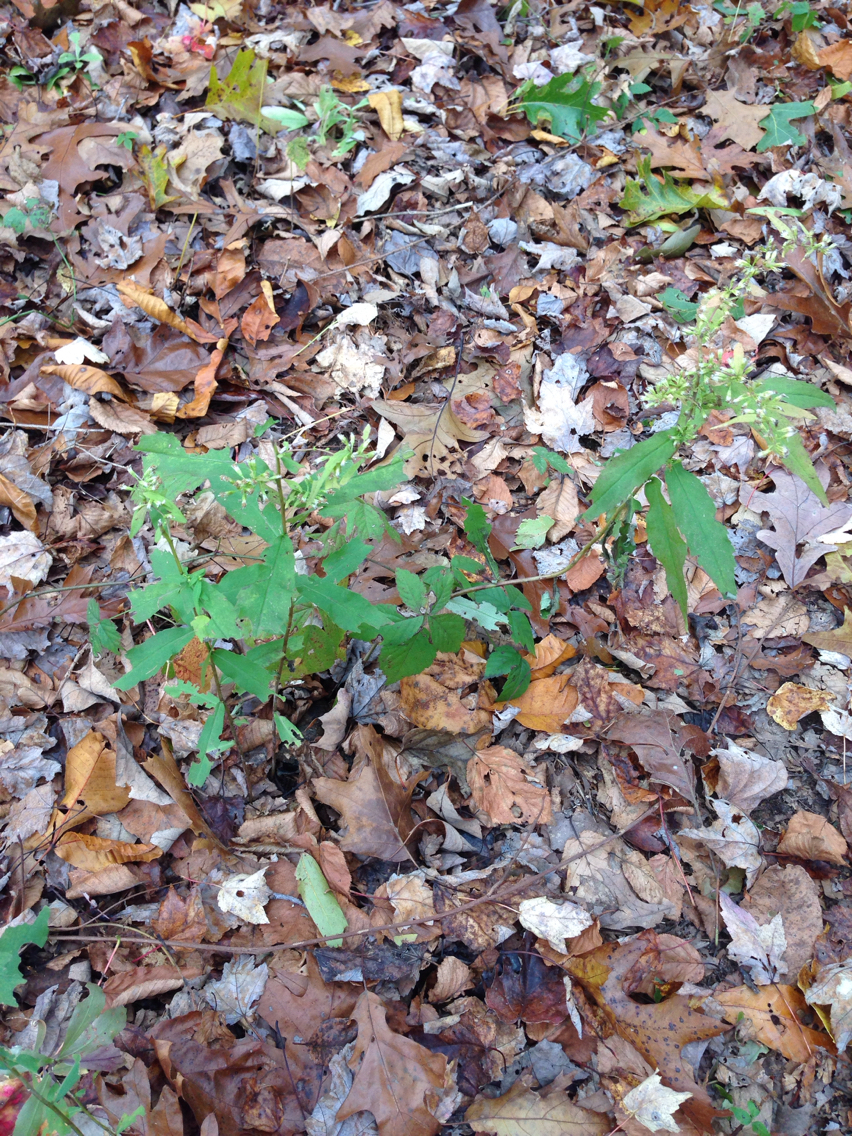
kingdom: Plantae
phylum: Tracheophyta
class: Magnoliopsida
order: Asterales
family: Asteraceae
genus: Solidago
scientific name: Solidago bicolor
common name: Silverrod
